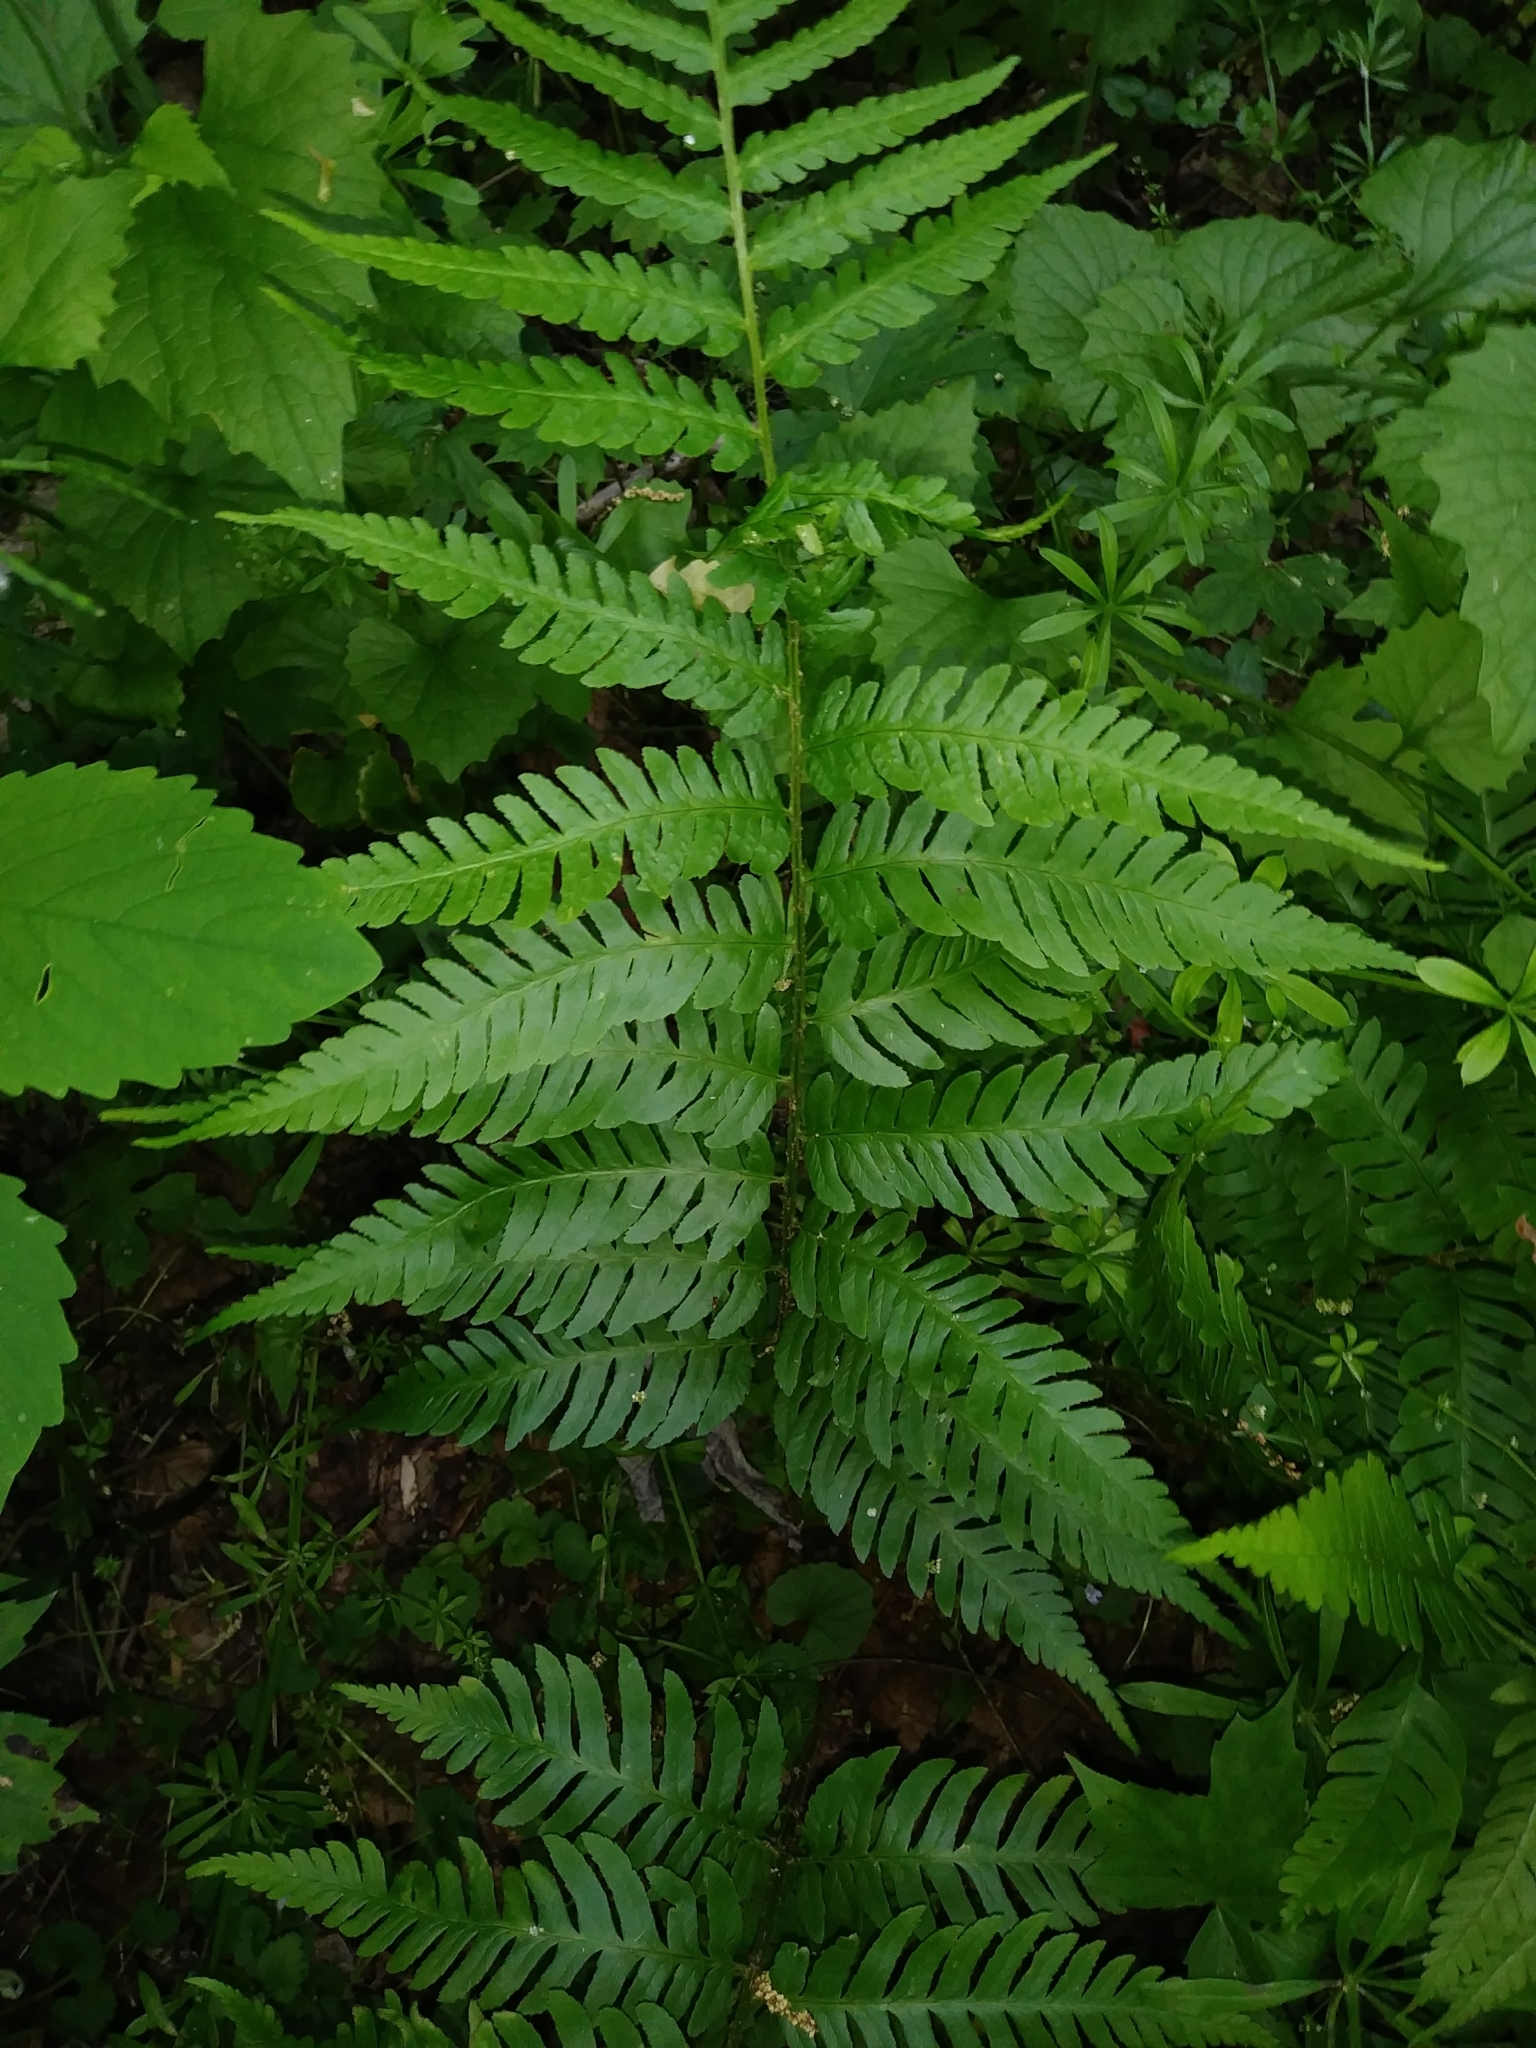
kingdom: Plantae
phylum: Tracheophyta
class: Polypodiopsida
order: Polypodiales
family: Dryopteridaceae
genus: Dryopteris
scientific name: Dryopteris leedsii
